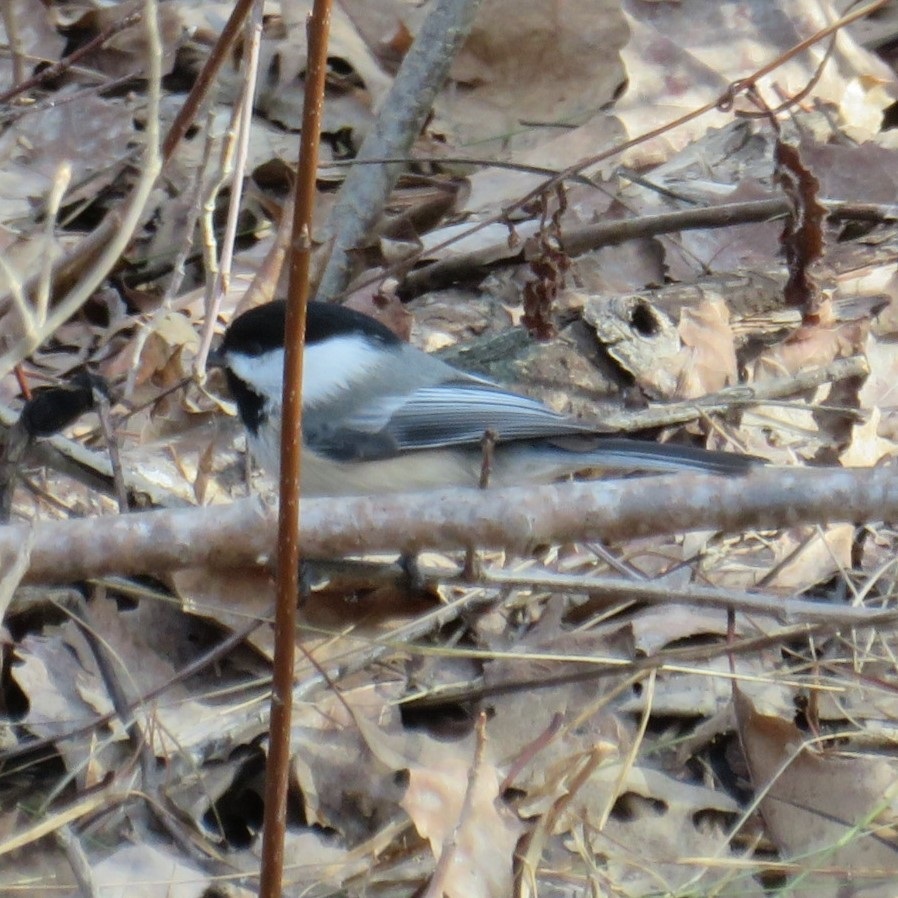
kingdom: Animalia
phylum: Chordata
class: Aves
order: Passeriformes
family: Paridae
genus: Poecile
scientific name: Poecile atricapillus
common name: Black-capped chickadee
